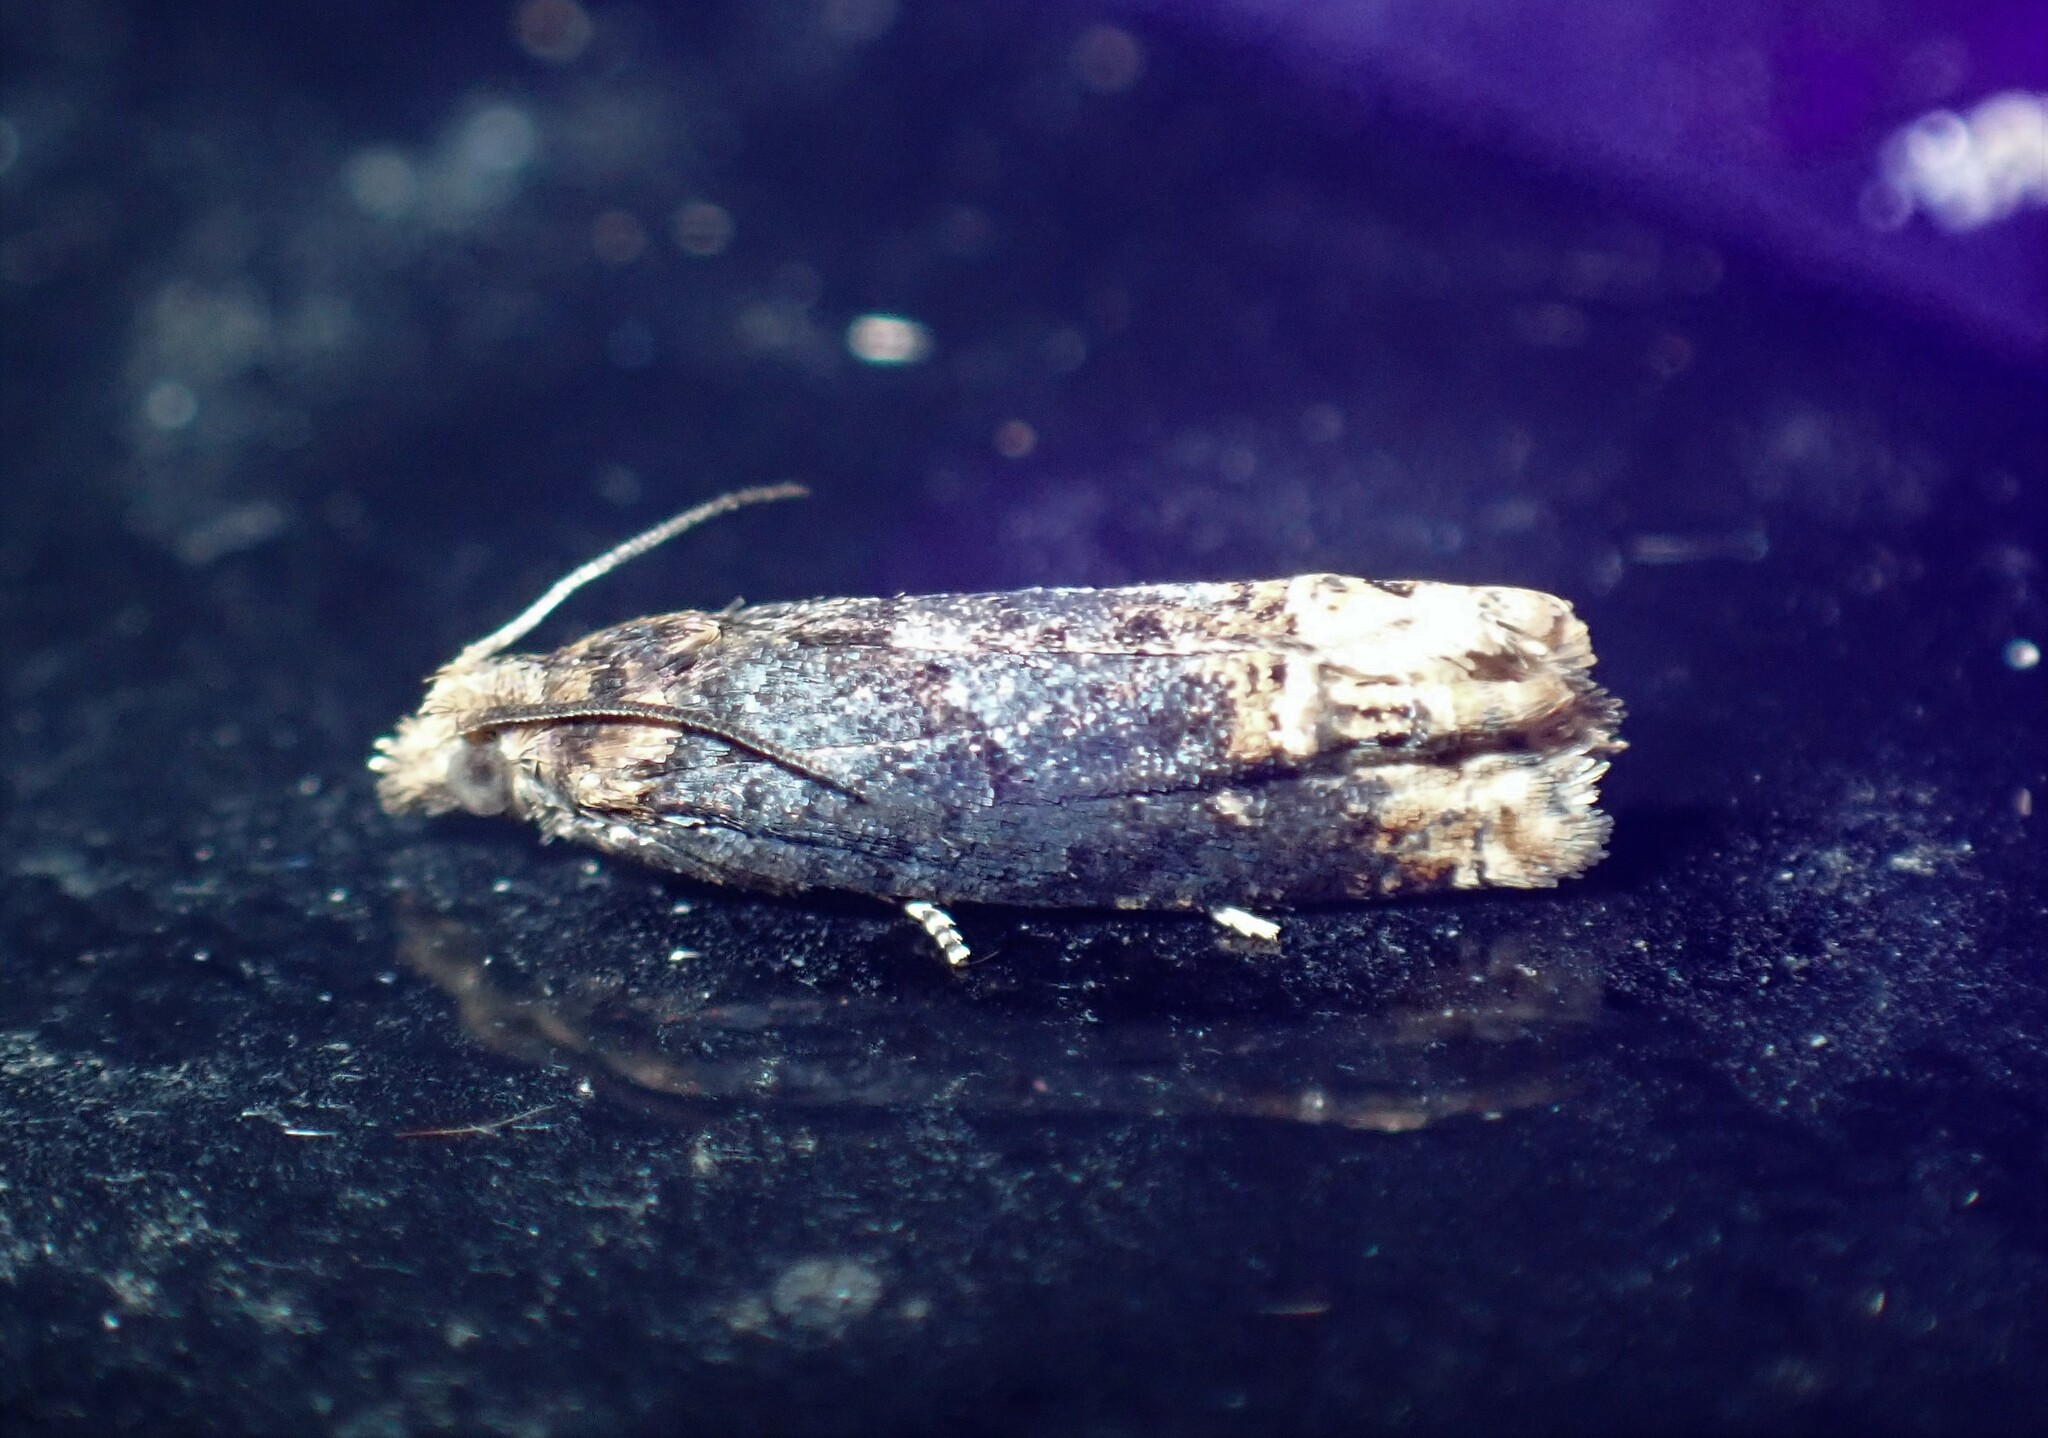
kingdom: Animalia
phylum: Arthropoda
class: Insecta
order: Lepidoptera
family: Tortricidae
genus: Eucosma
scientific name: Eucosma ochroterminana
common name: Buff-tipped eucosma moth
